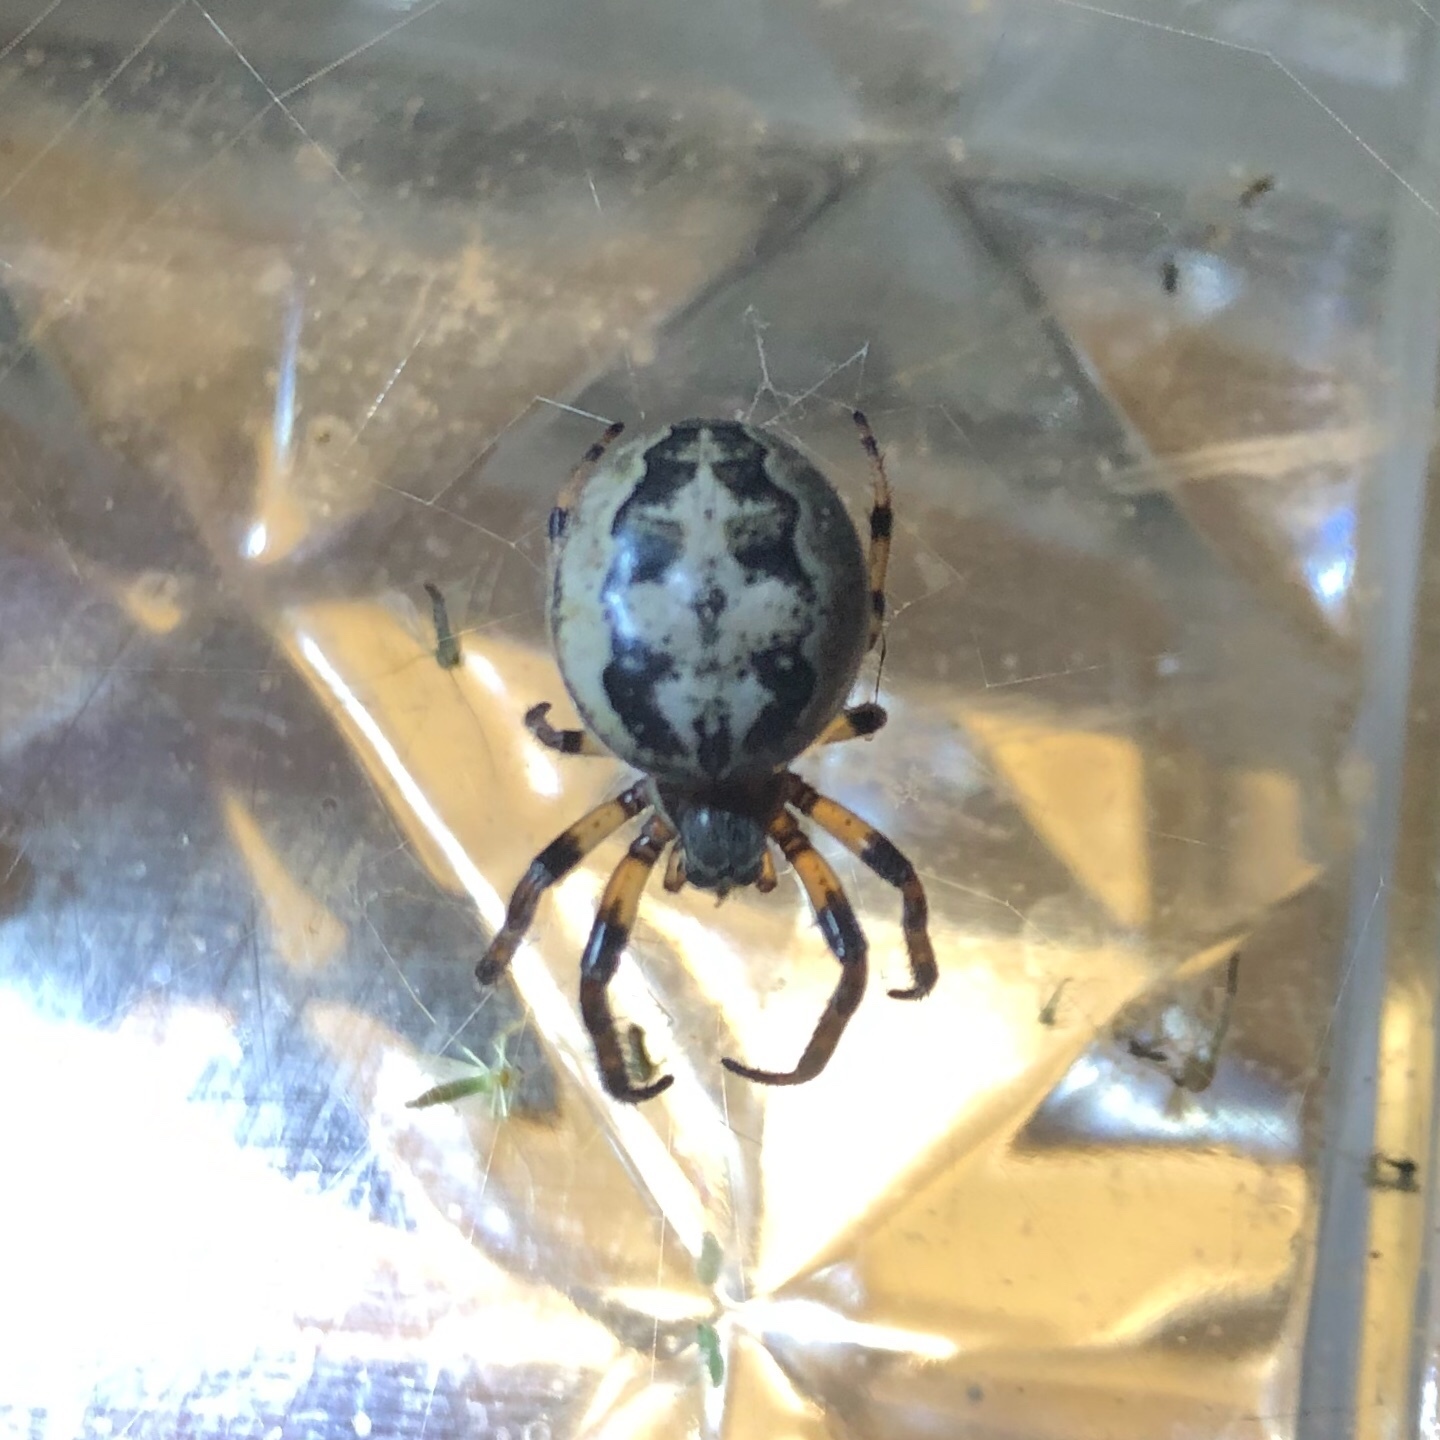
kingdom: Animalia
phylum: Arthropoda
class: Arachnida
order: Araneae
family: Araneidae
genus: Larinioides
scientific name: Larinioides cornutus
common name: Furrow orbweaver
